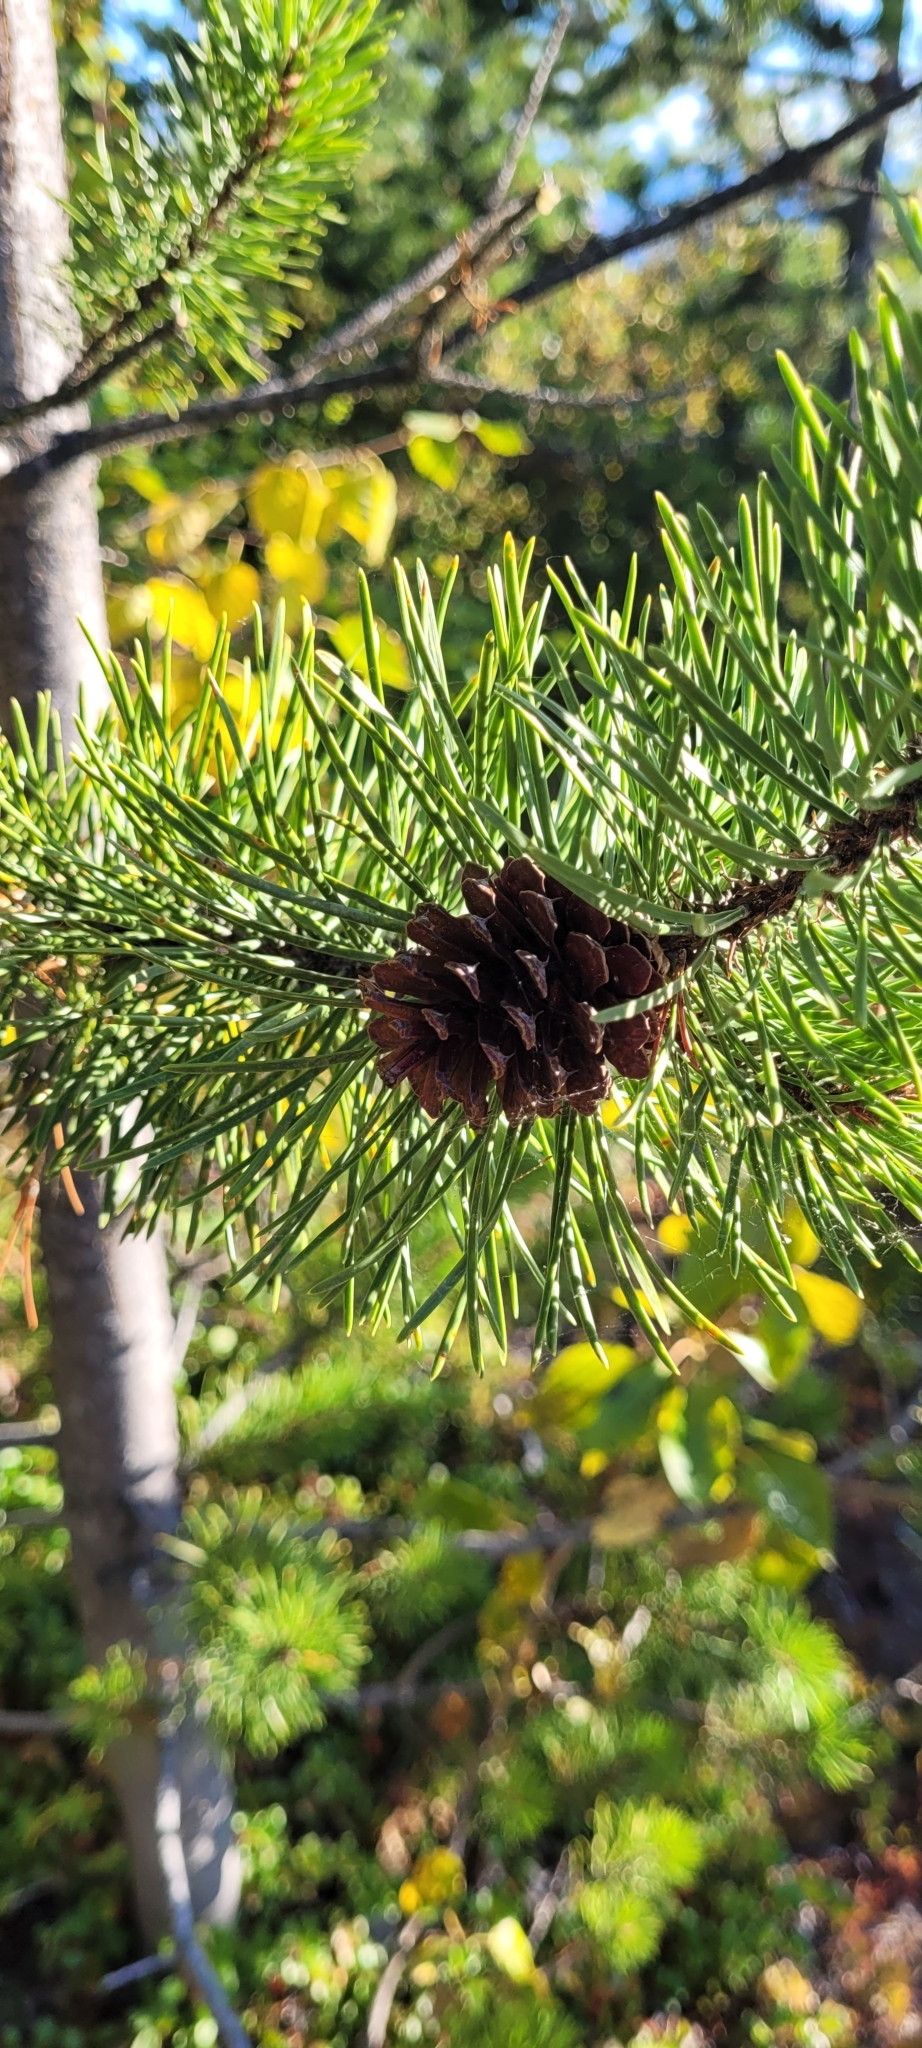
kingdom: Plantae
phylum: Tracheophyta
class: Pinopsida
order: Pinales
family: Pinaceae
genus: Pinus
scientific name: Pinus contorta
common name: Lodgepole pine
